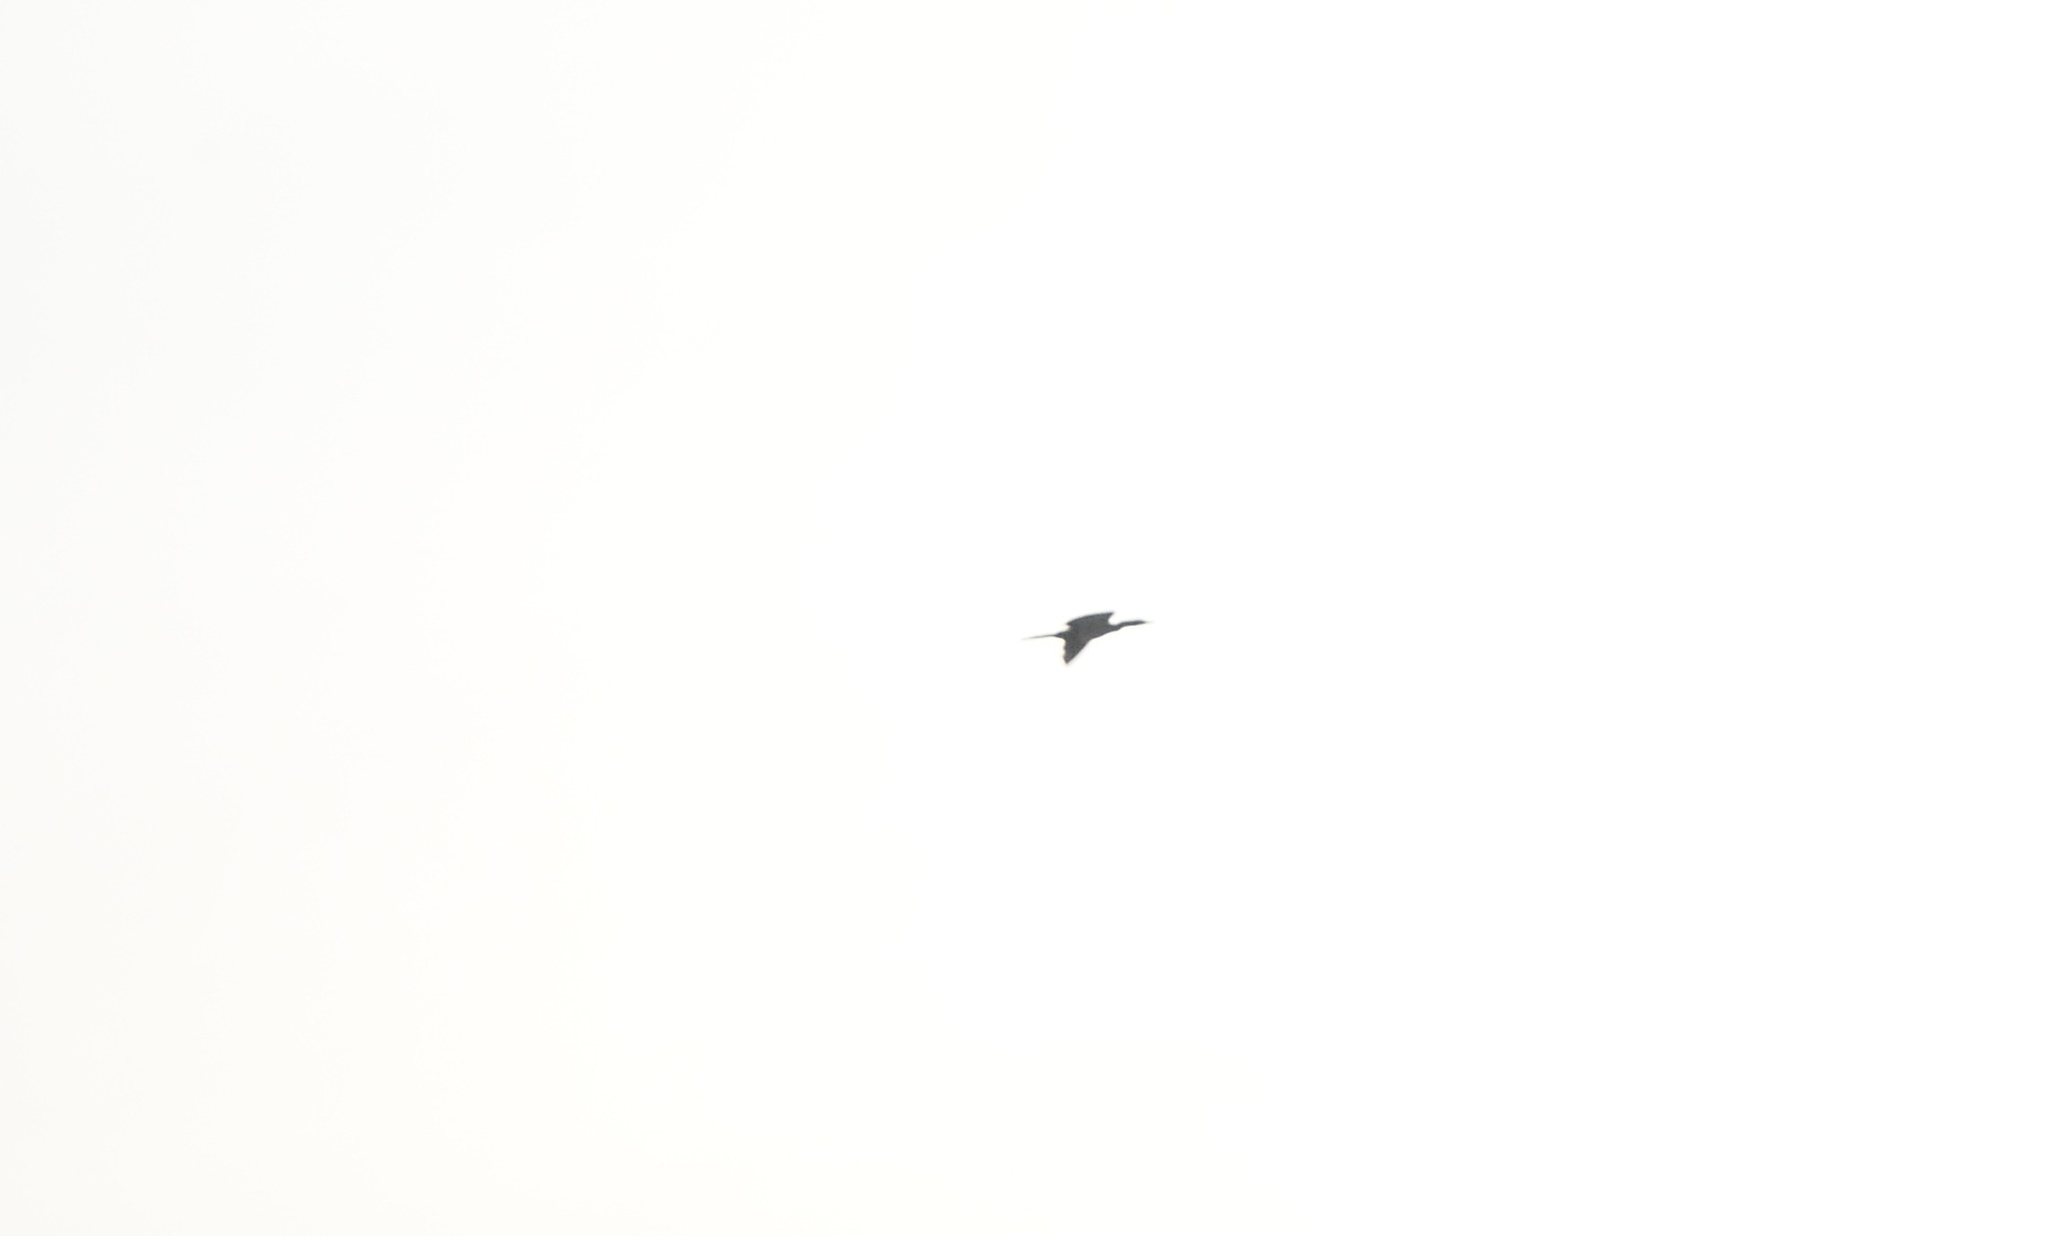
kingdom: Animalia
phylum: Chordata
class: Aves
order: Suliformes
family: Phalacrocoracidae
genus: Microcarbo
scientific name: Microcarbo niger
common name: Little cormorant
